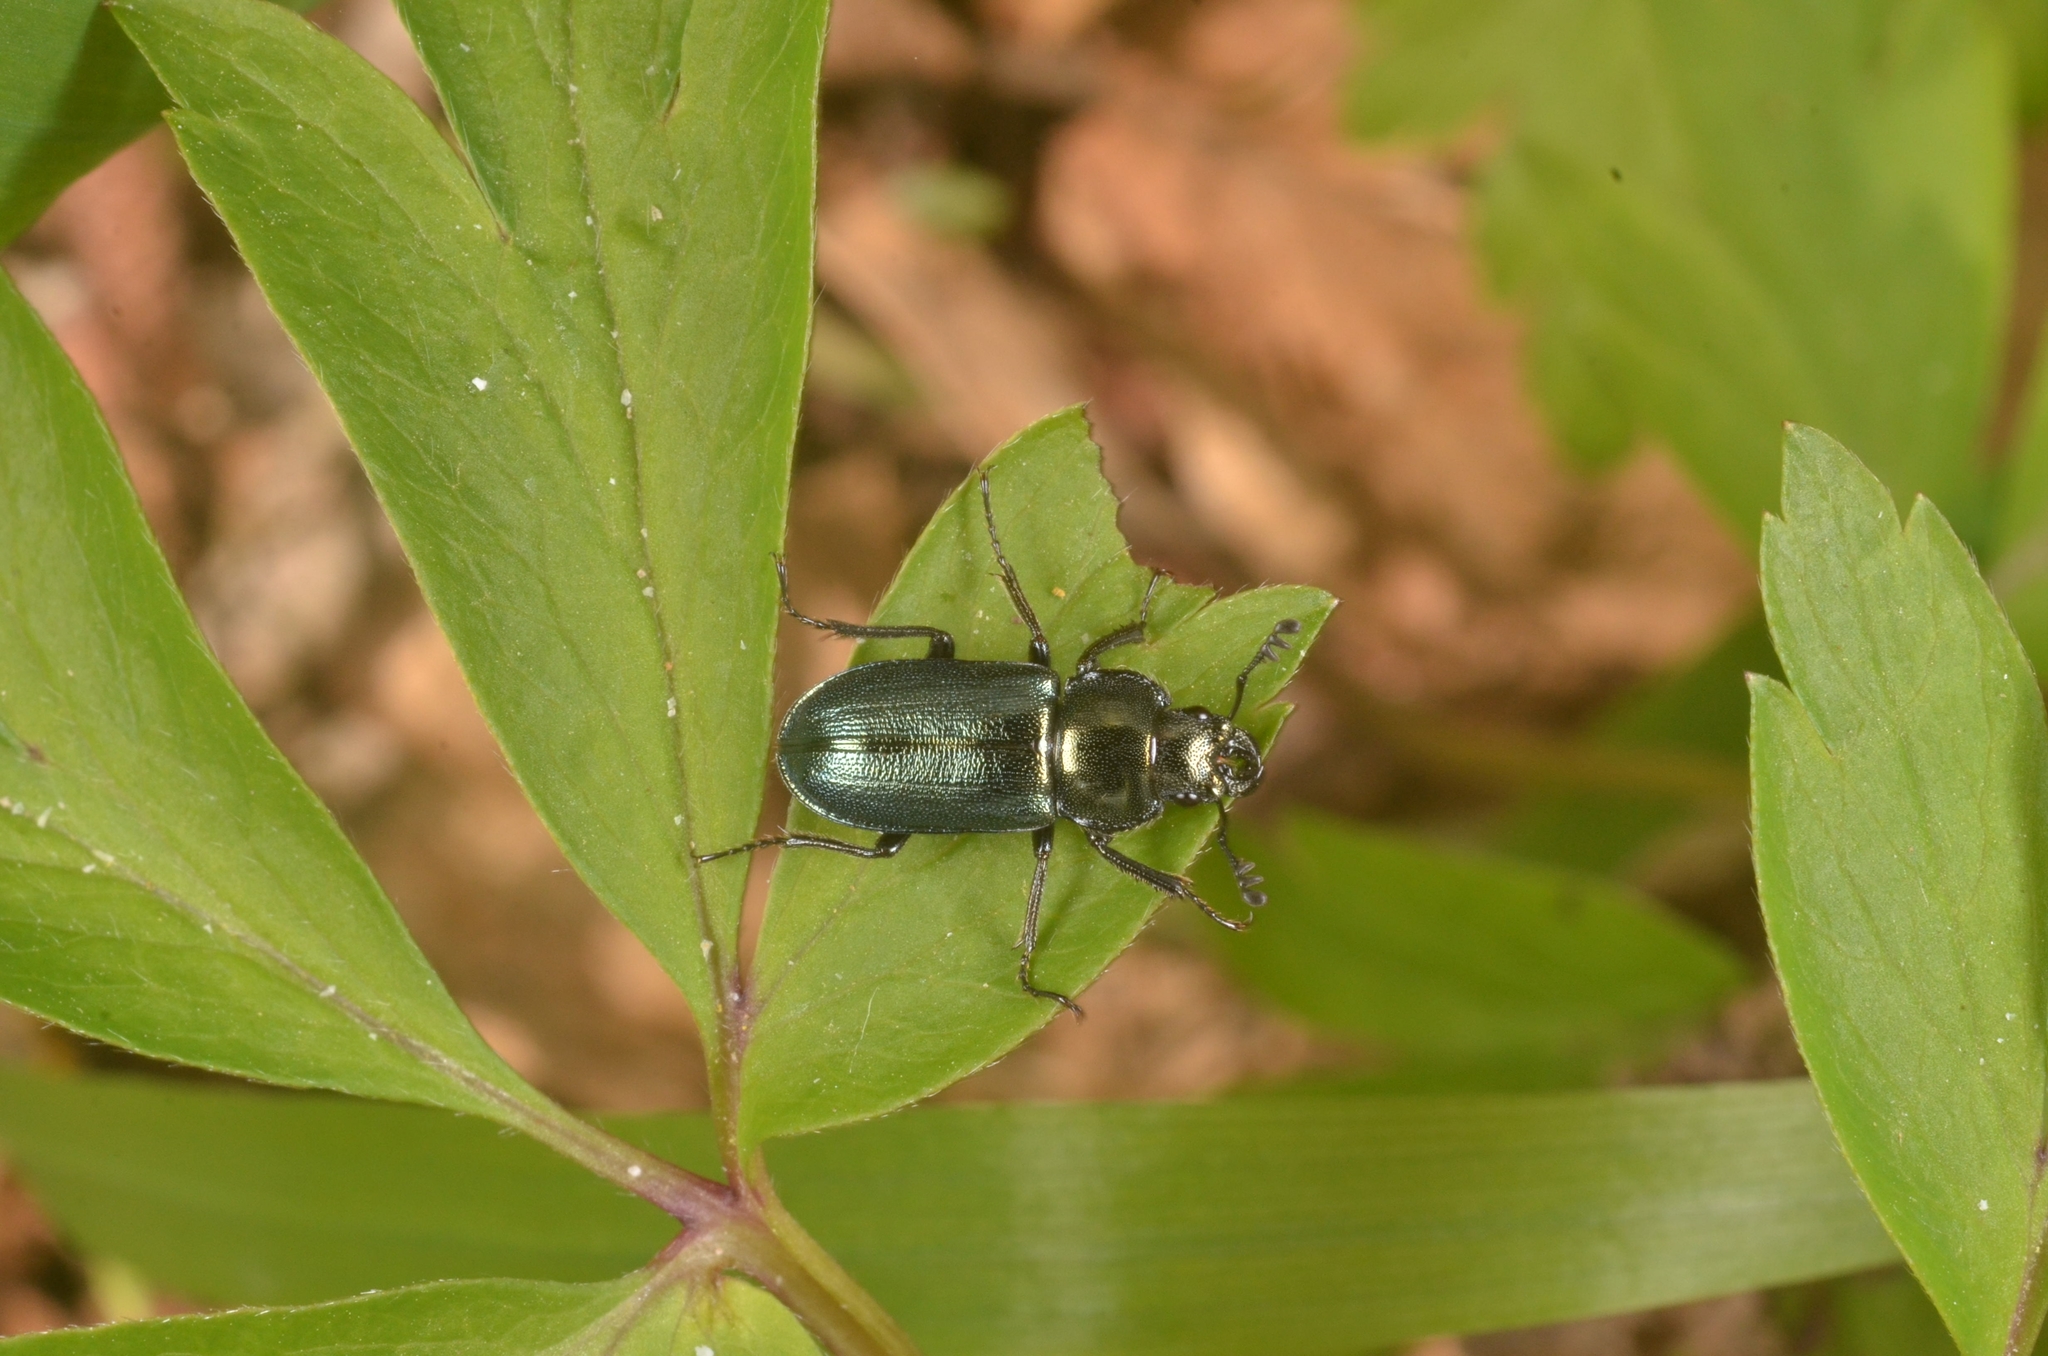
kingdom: Animalia
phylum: Arthropoda
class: Insecta
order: Coleoptera
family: Lucanidae
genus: Platycerus
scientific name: Platycerus caraboides
